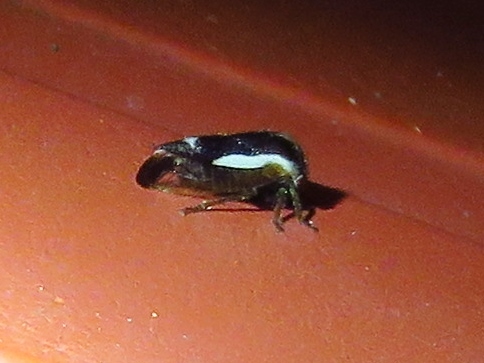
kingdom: Animalia
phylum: Arthropoda
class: Insecta
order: Hemiptera
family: Membracidae
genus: Ophiderma
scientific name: Ophiderma flavicephala
